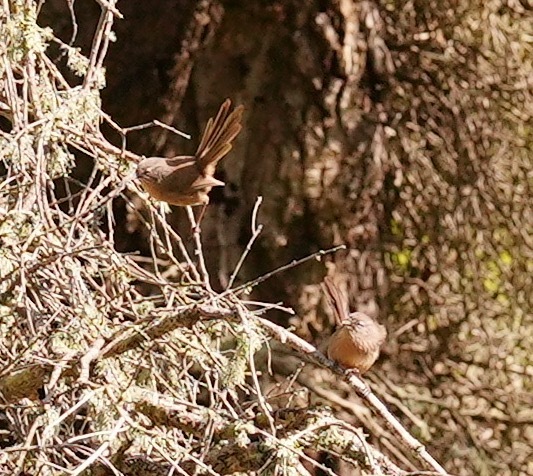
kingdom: Animalia
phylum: Chordata
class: Aves
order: Passeriformes
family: Sylviidae
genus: Chamaea
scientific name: Chamaea fasciata
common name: Wrentit
